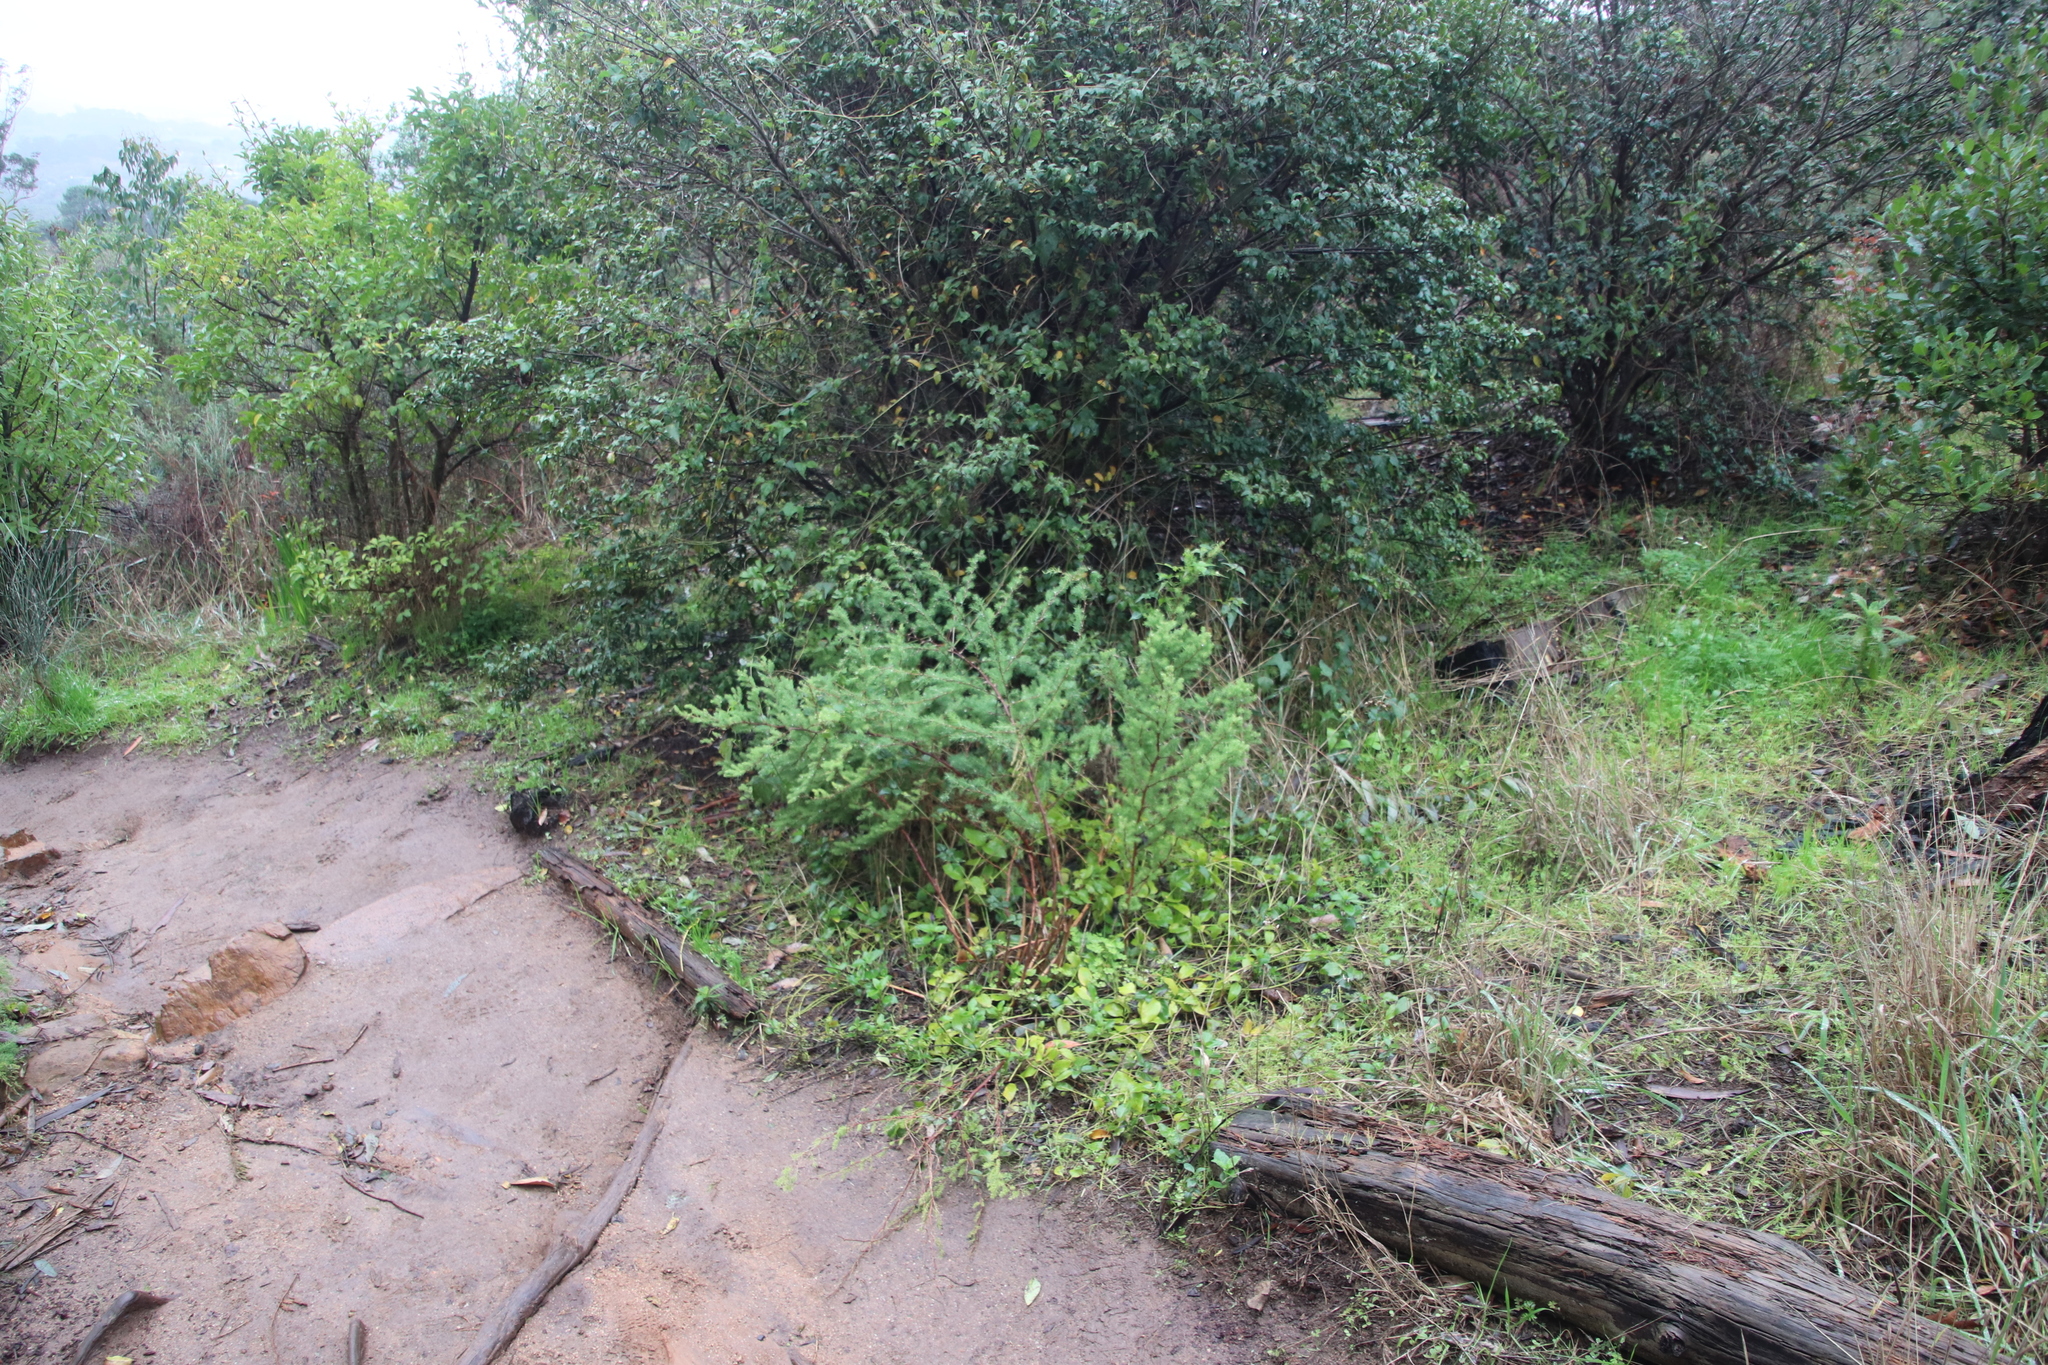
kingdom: Plantae
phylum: Tracheophyta
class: Liliopsida
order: Asparagales
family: Asparagaceae
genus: Asparagus
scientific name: Asparagus rubicundus
